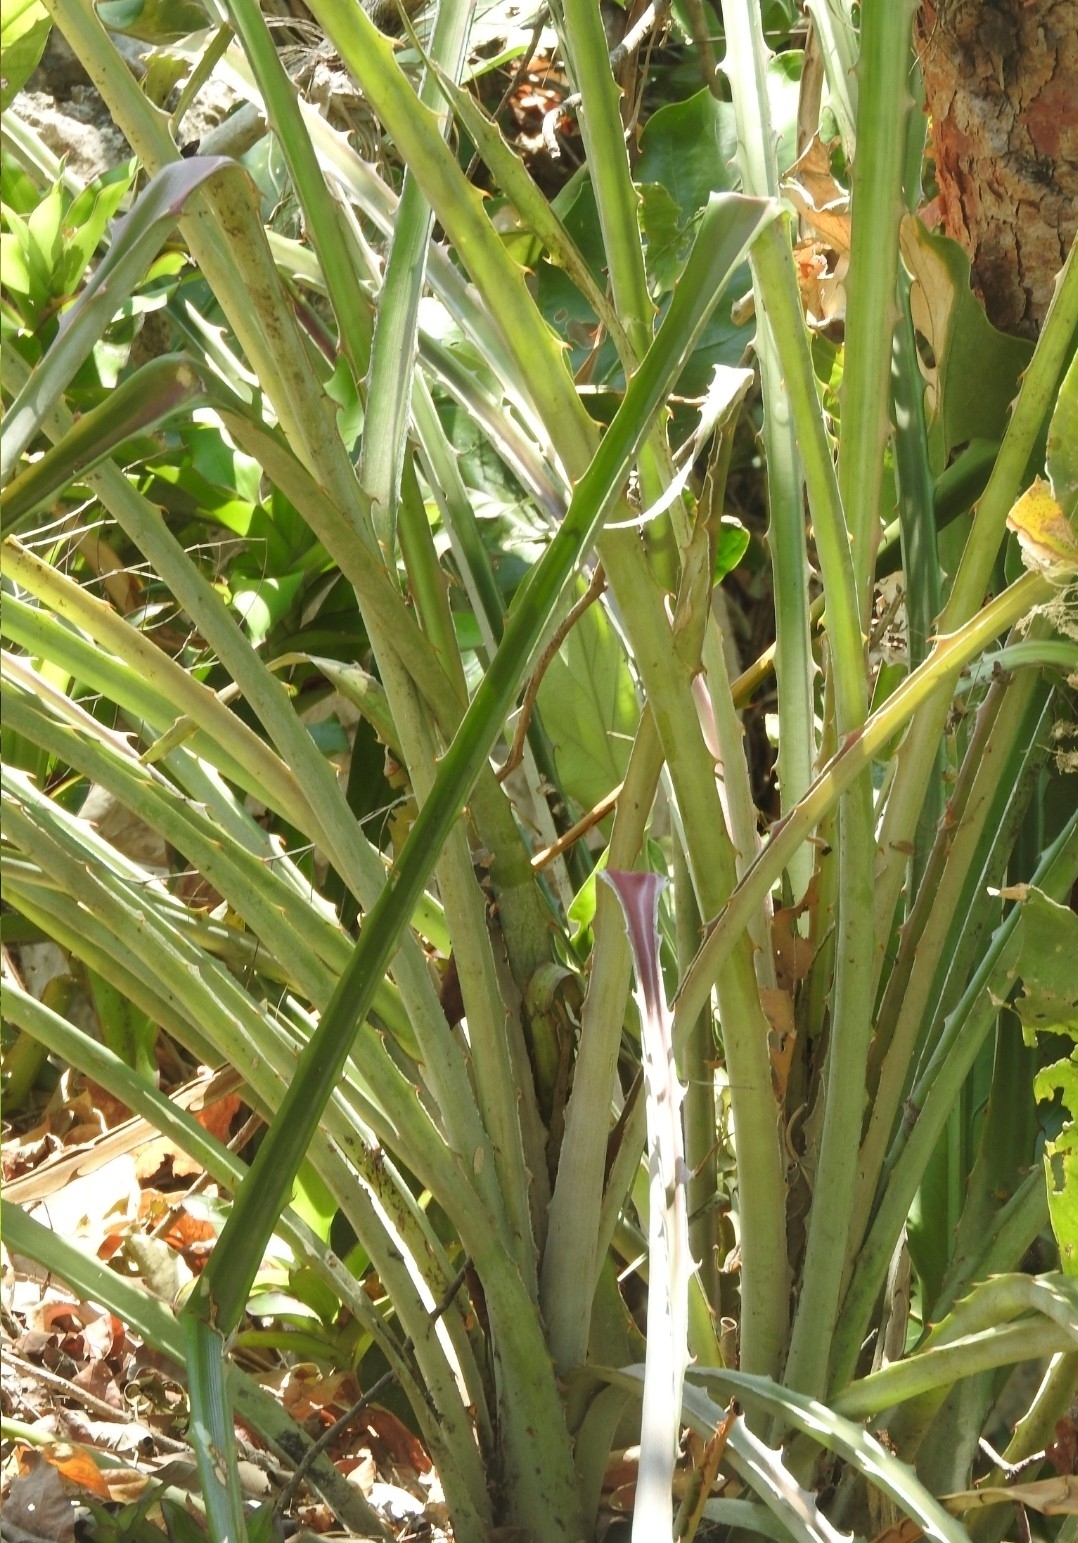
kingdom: Plantae
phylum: Tracheophyta
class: Liliopsida
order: Poales
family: Bromeliaceae
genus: Bromelia
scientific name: Bromelia pinguin
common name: Pinguin
